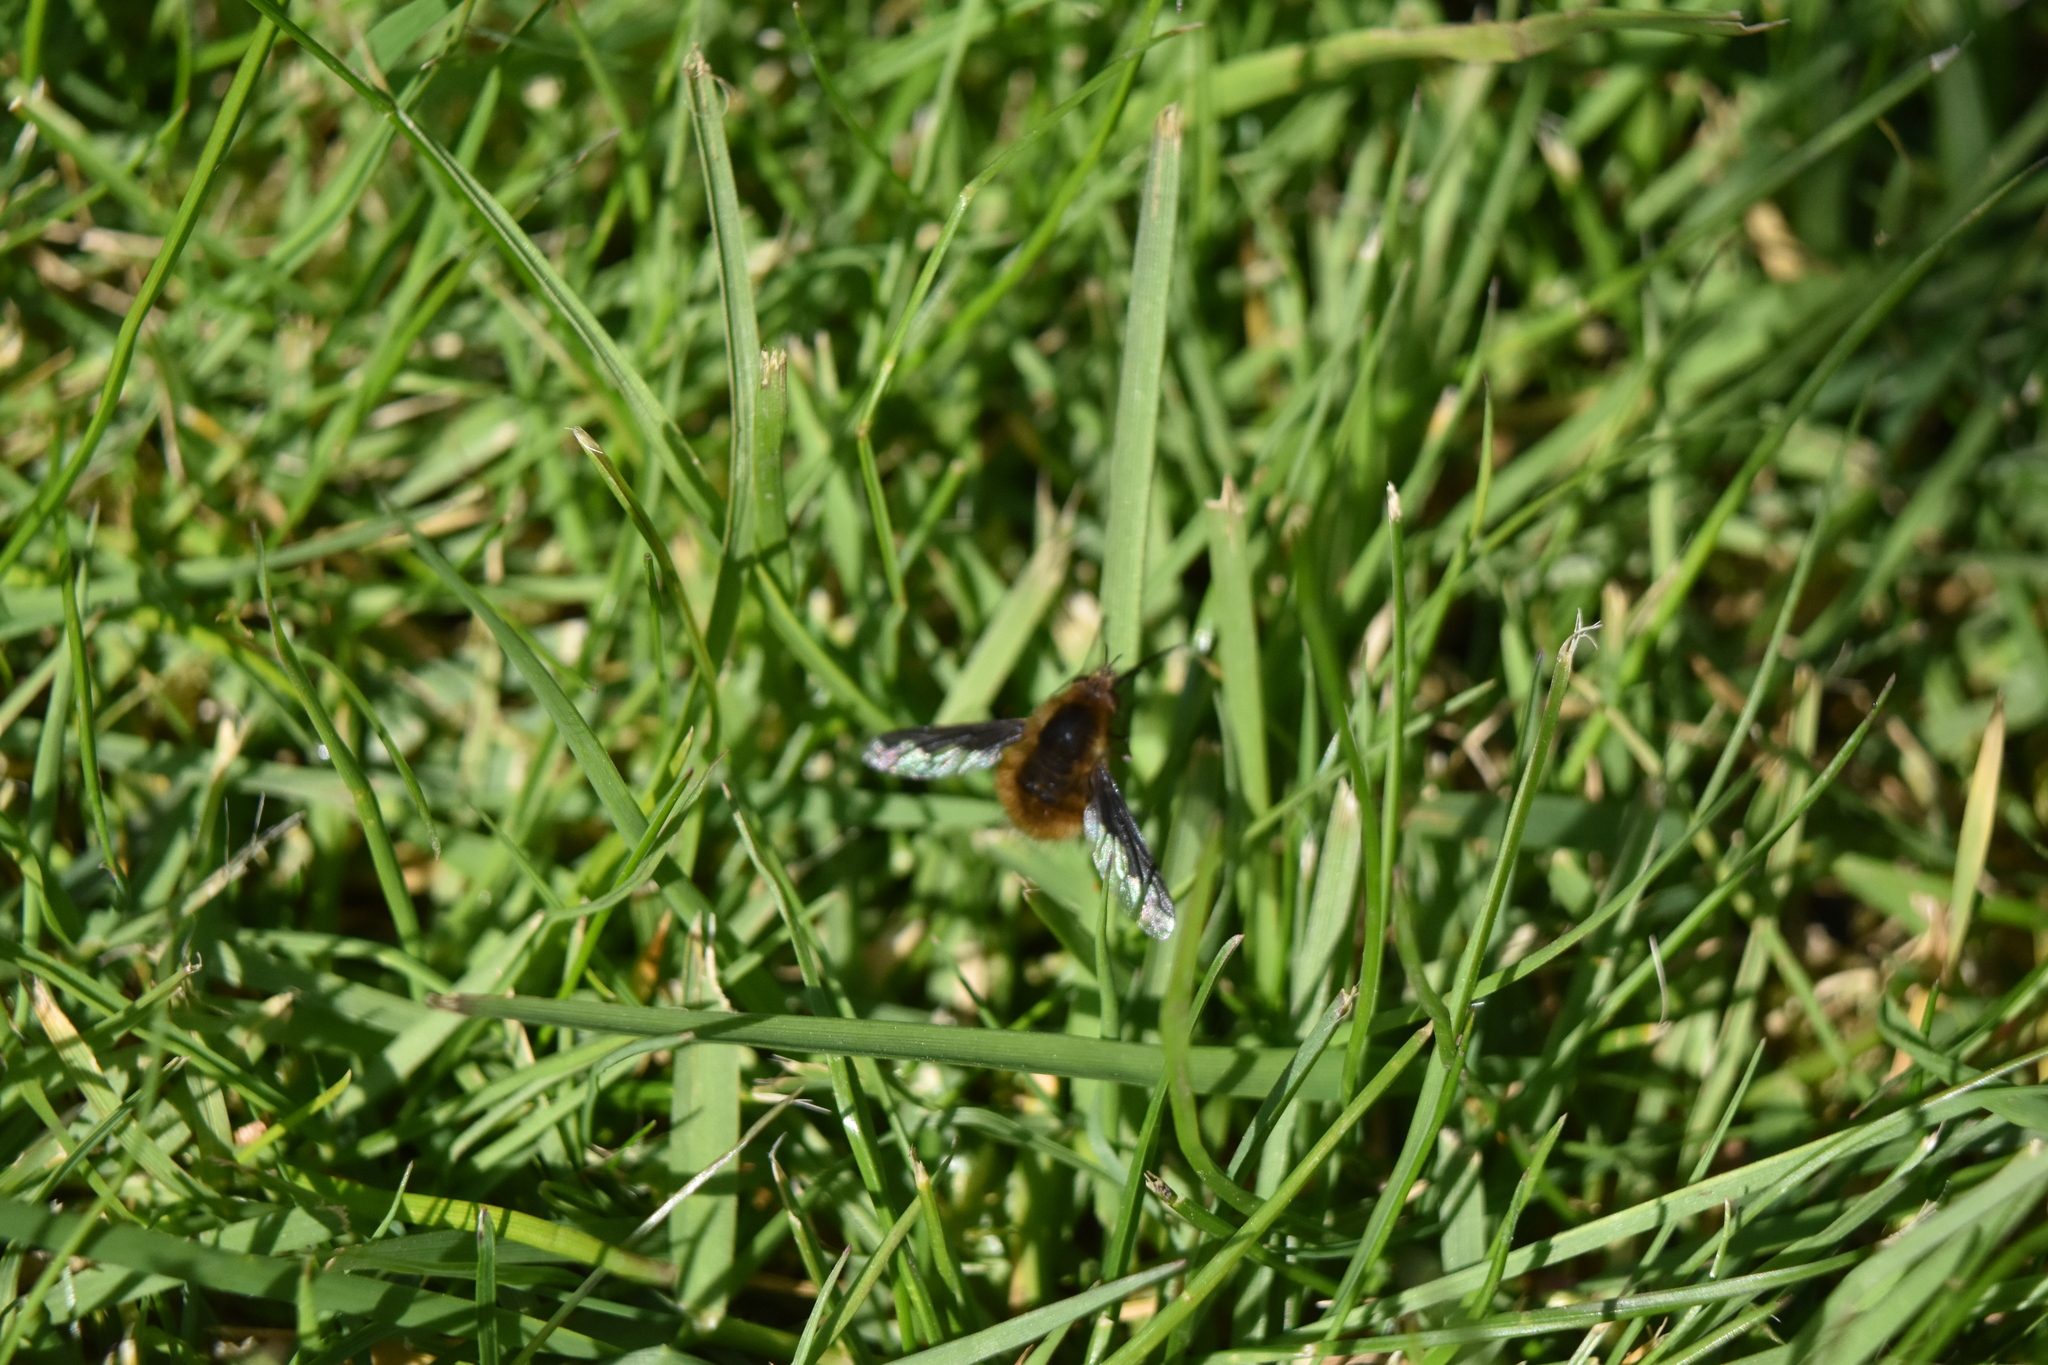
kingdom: Animalia
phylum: Arthropoda
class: Insecta
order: Diptera
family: Bombyliidae
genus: Bombylius
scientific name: Bombylius major
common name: Bee fly
